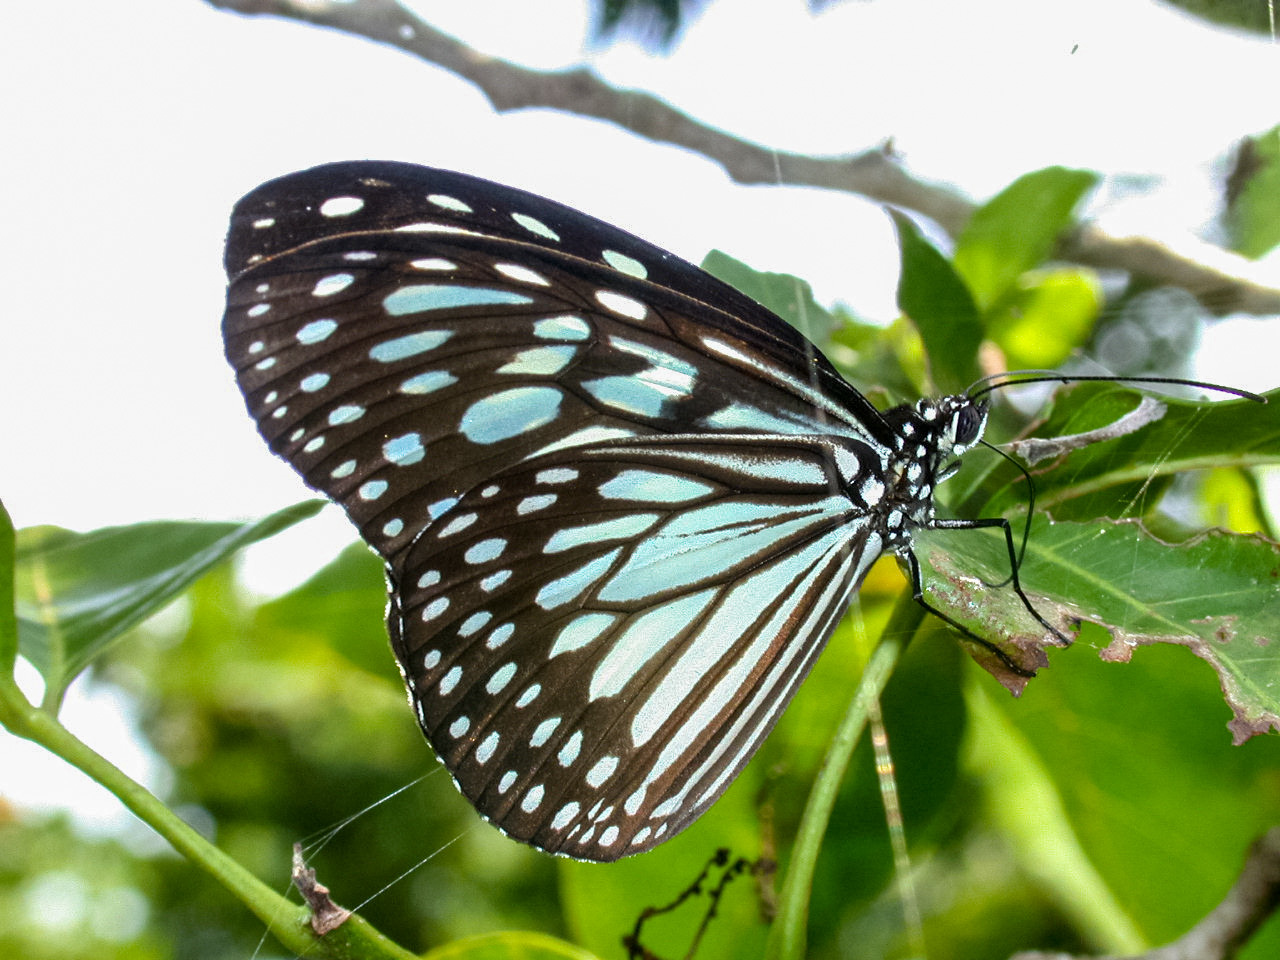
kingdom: Animalia
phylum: Arthropoda
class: Insecta
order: Lepidoptera
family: Nymphalidae
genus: Ideopsis
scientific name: Ideopsis juventa
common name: Grey glassy tiger
